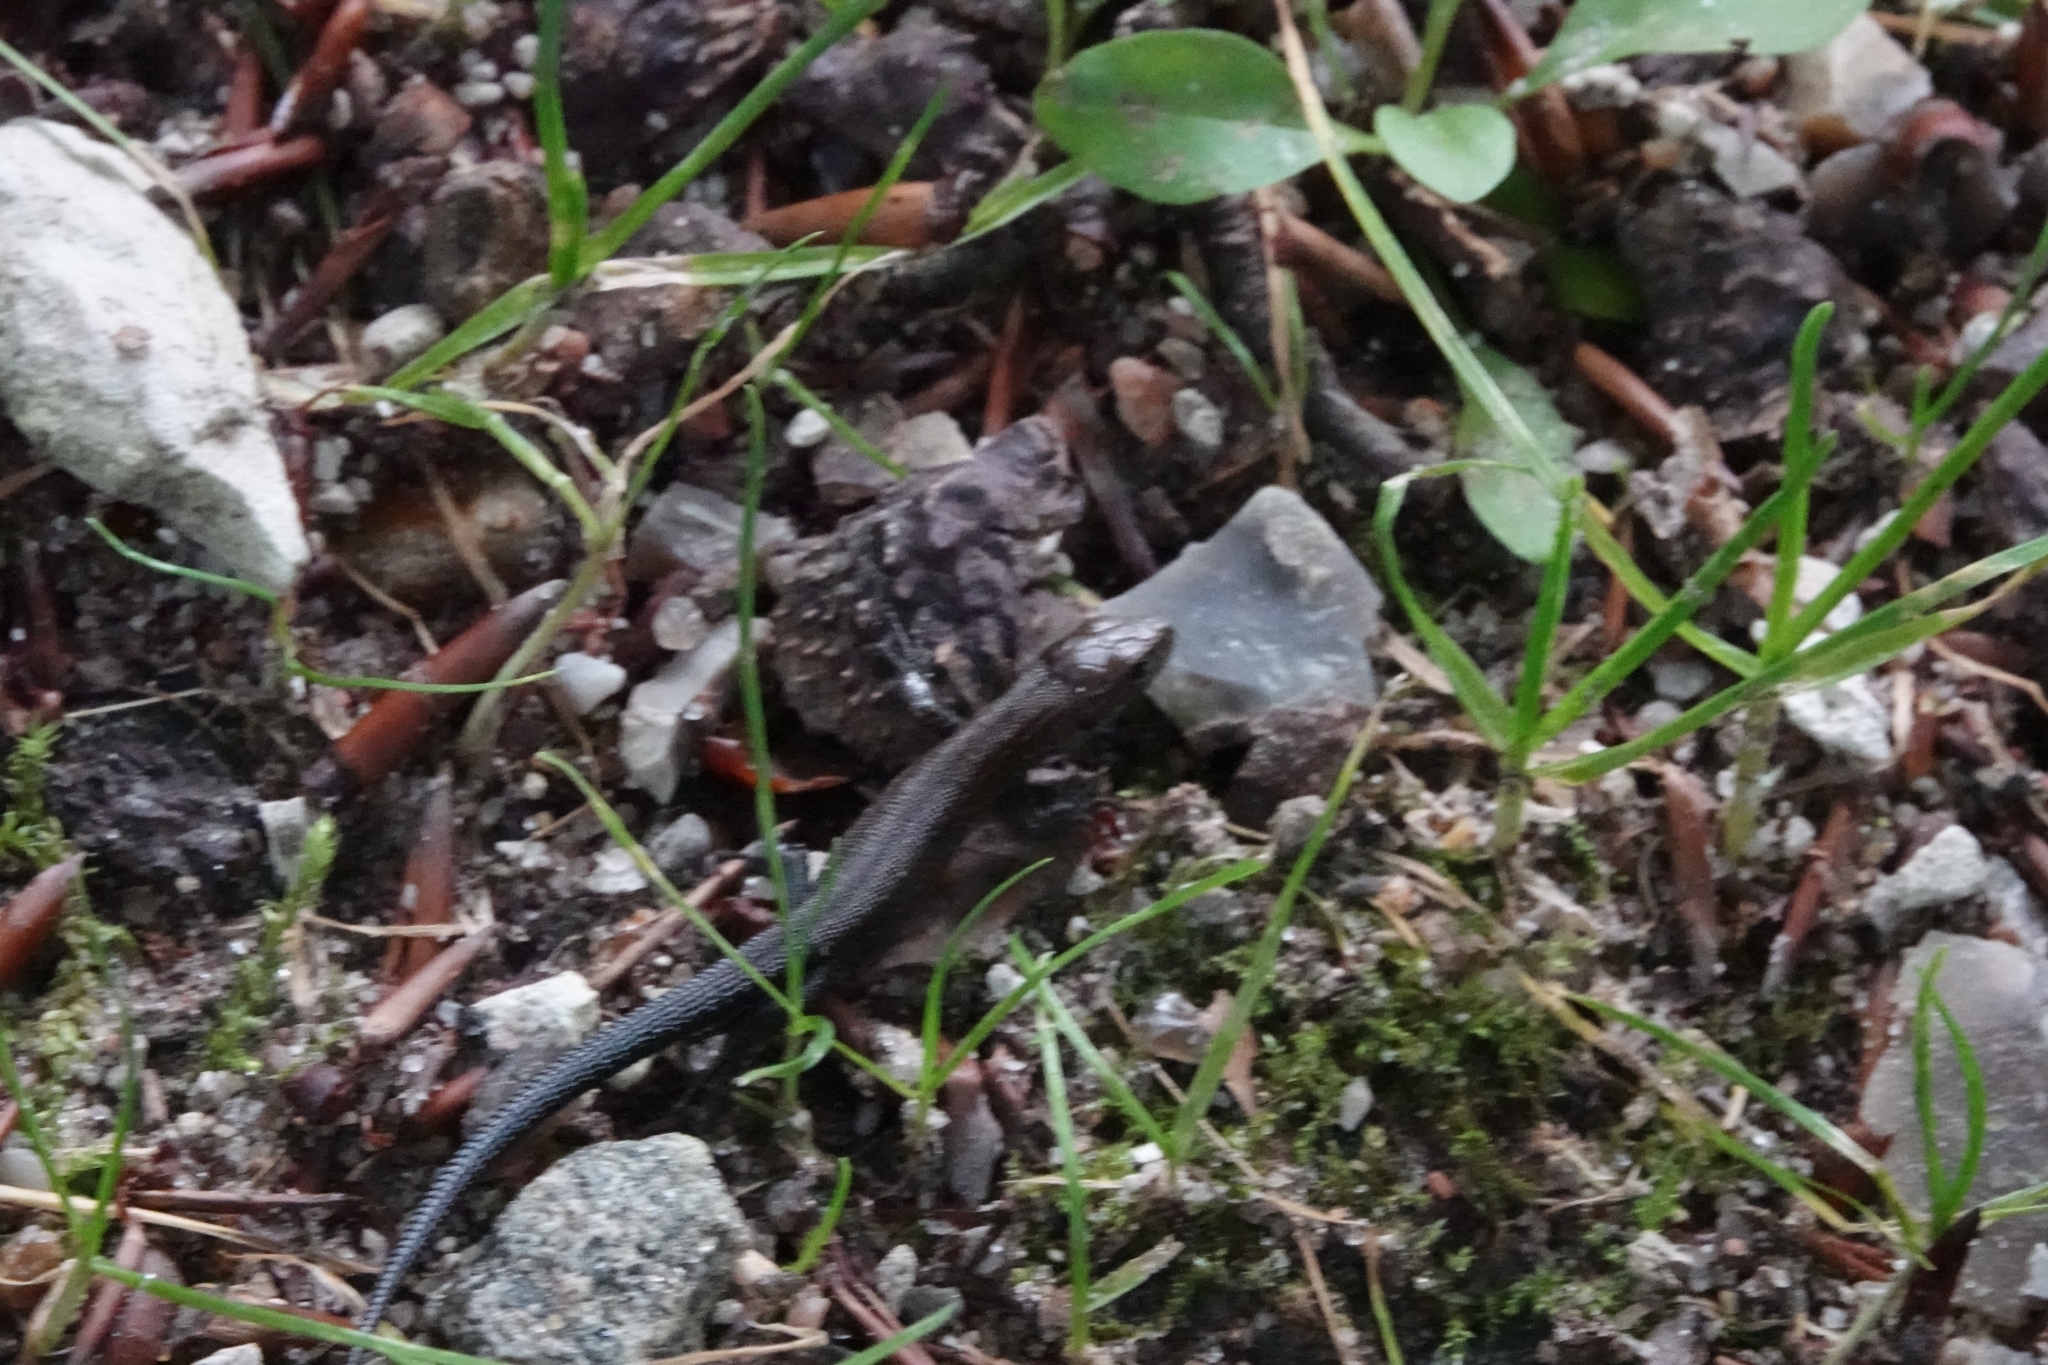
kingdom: Animalia
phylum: Chordata
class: Squamata
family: Lacertidae
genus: Zootoca
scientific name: Zootoca vivipara
